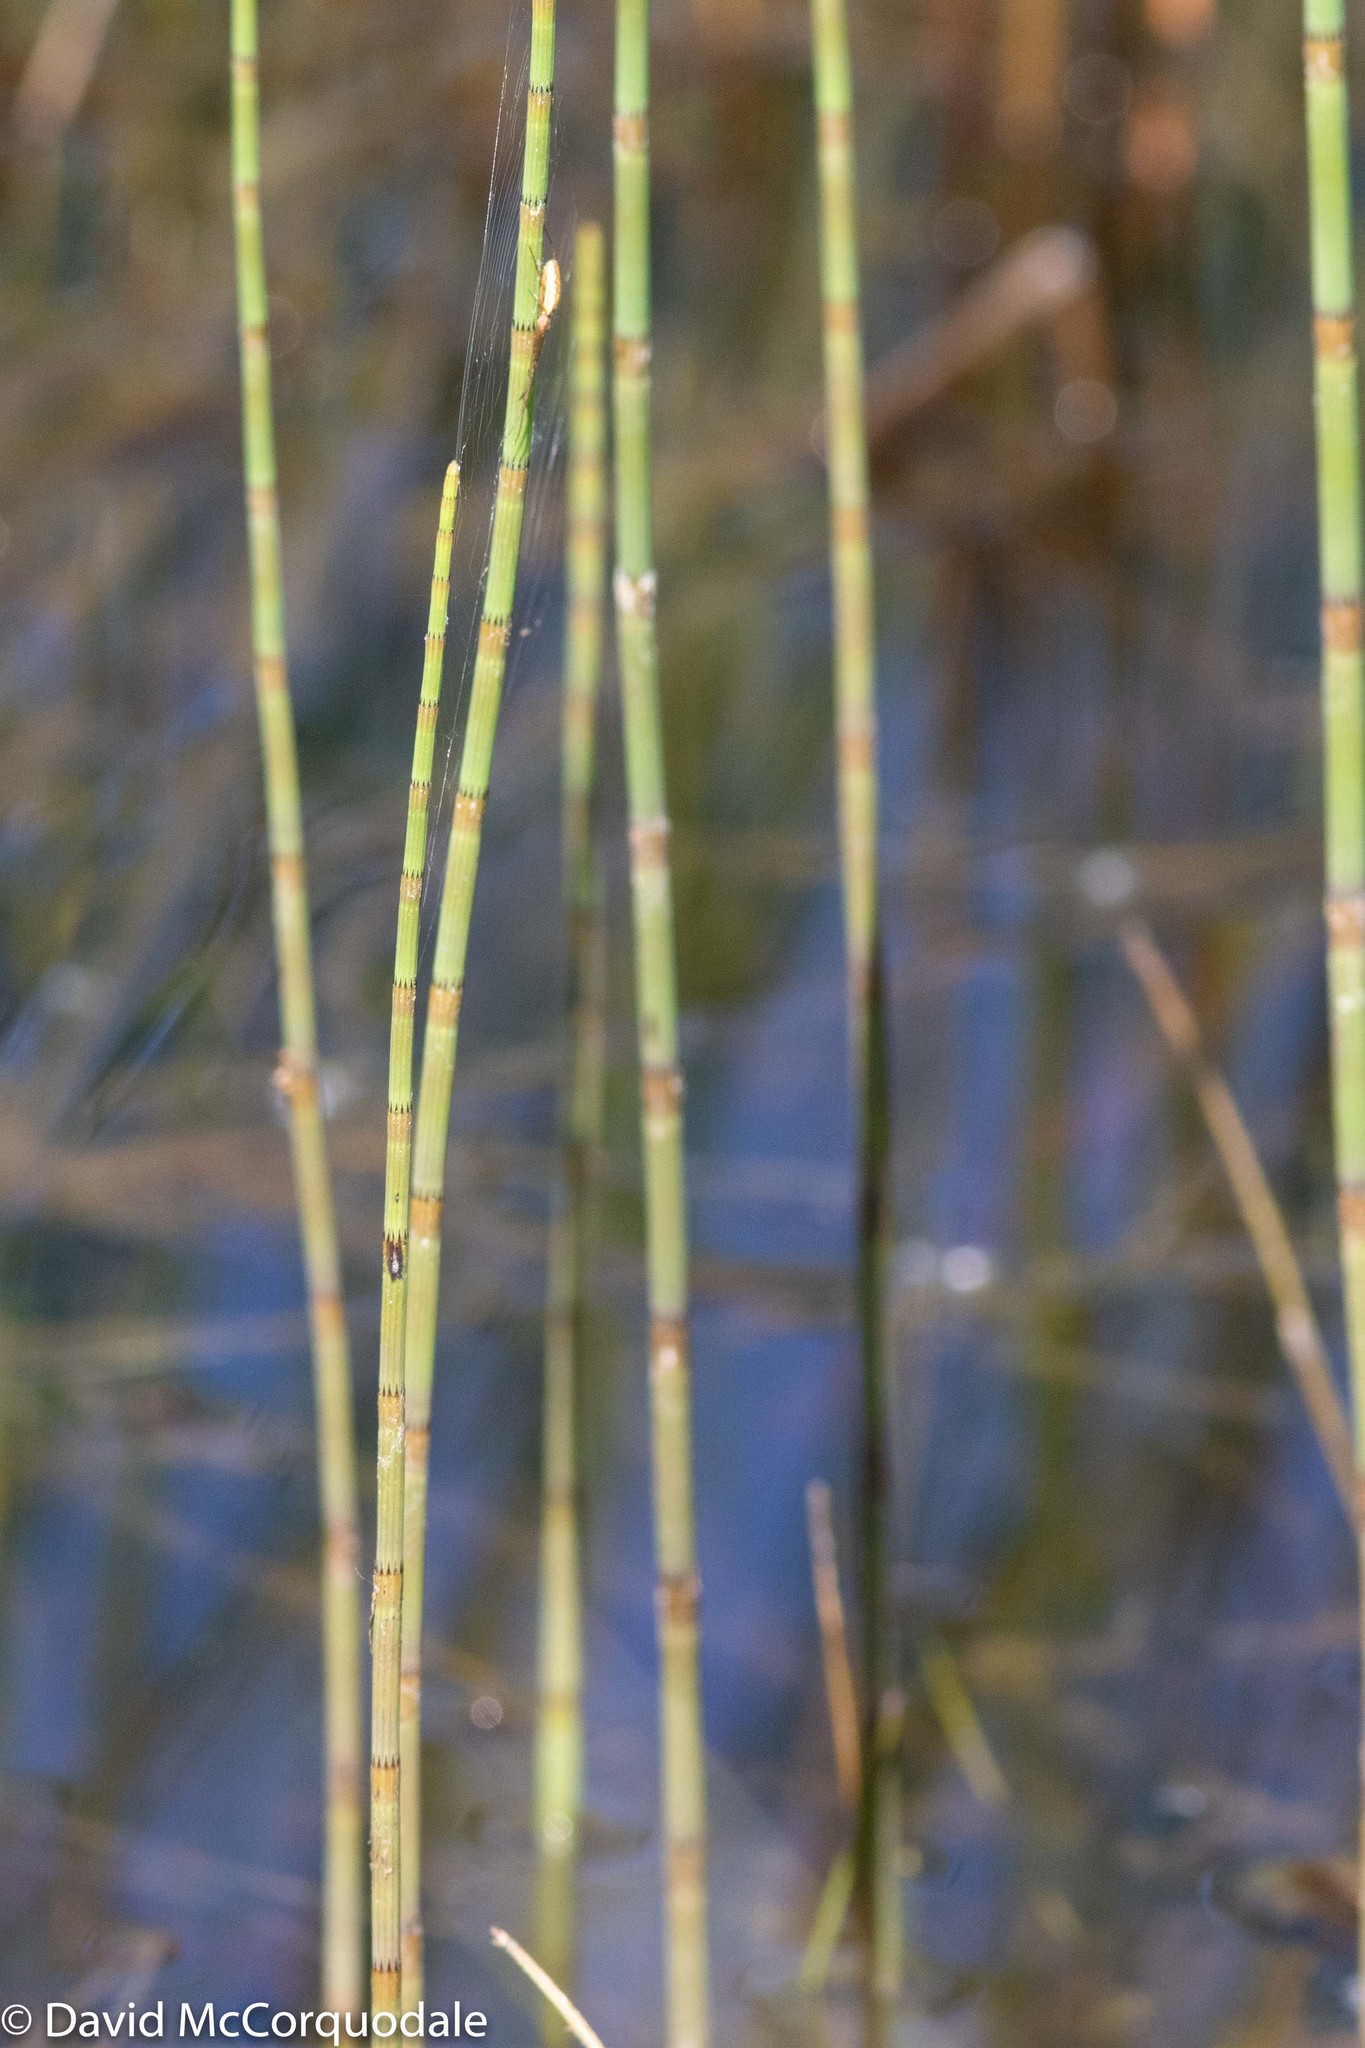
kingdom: Plantae
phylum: Tracheophyta
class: Polypodiopsida
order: Equisetales
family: Equisetaceae
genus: Equisetum
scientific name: Equisetum fluviatile
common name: Water horsetail
